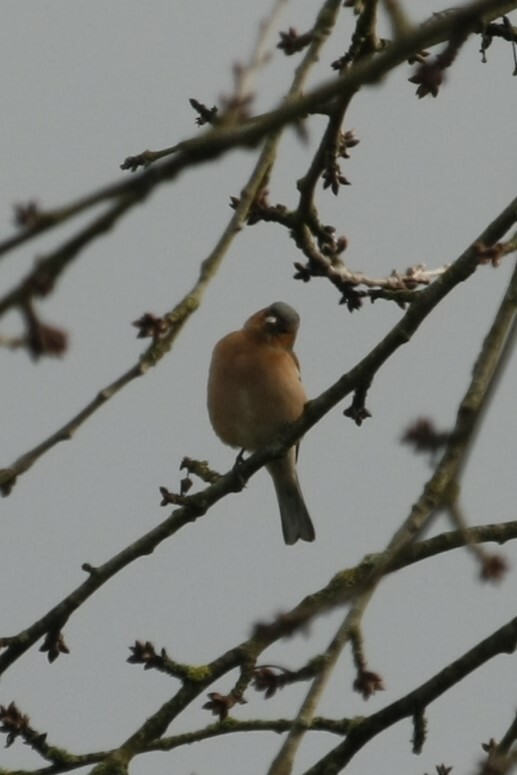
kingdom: Animalia
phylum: Chordata
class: Aves
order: Passeriformes
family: Fringillidae
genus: Fringilla
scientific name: Fringilla coelebs
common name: Common chaffinch
